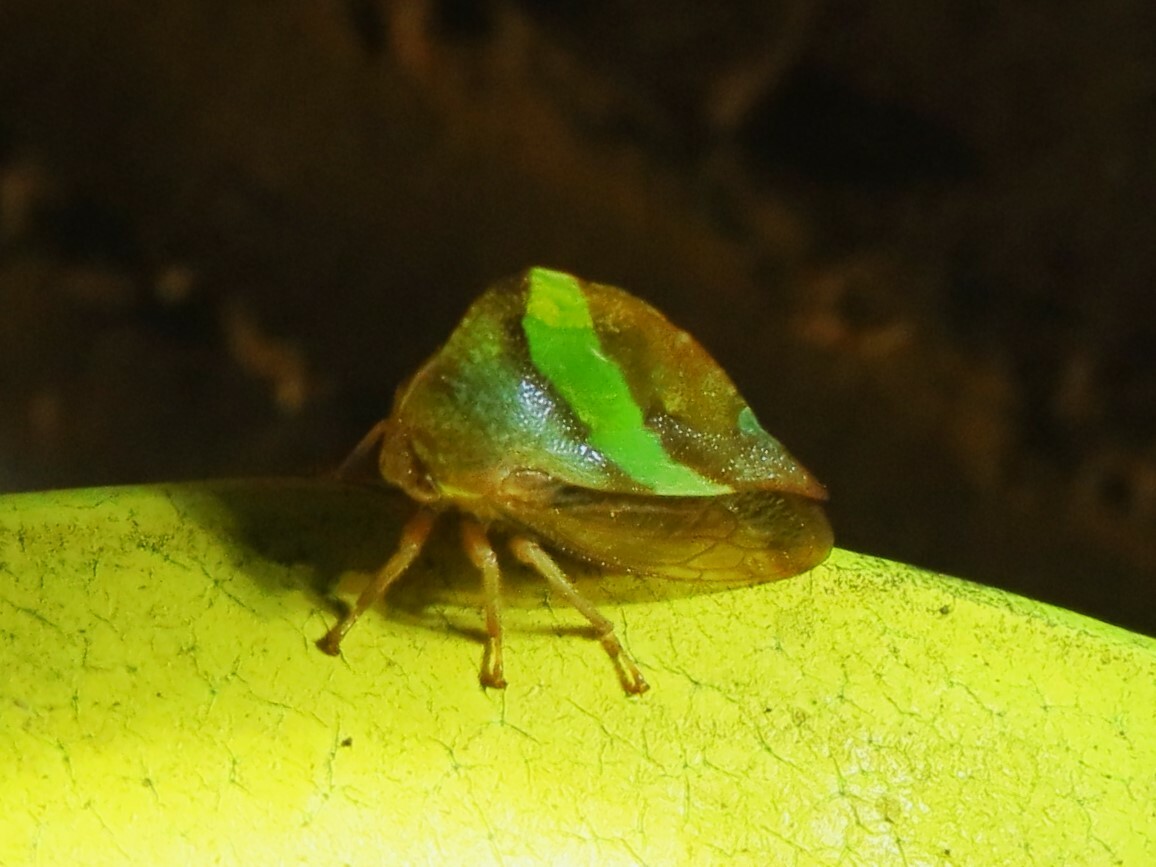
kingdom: Animalia
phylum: Arthropoda
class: Insecta
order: Hemiptera
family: Membracidae
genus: Smilia
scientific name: Smilia camelus
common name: Camel treehopper
